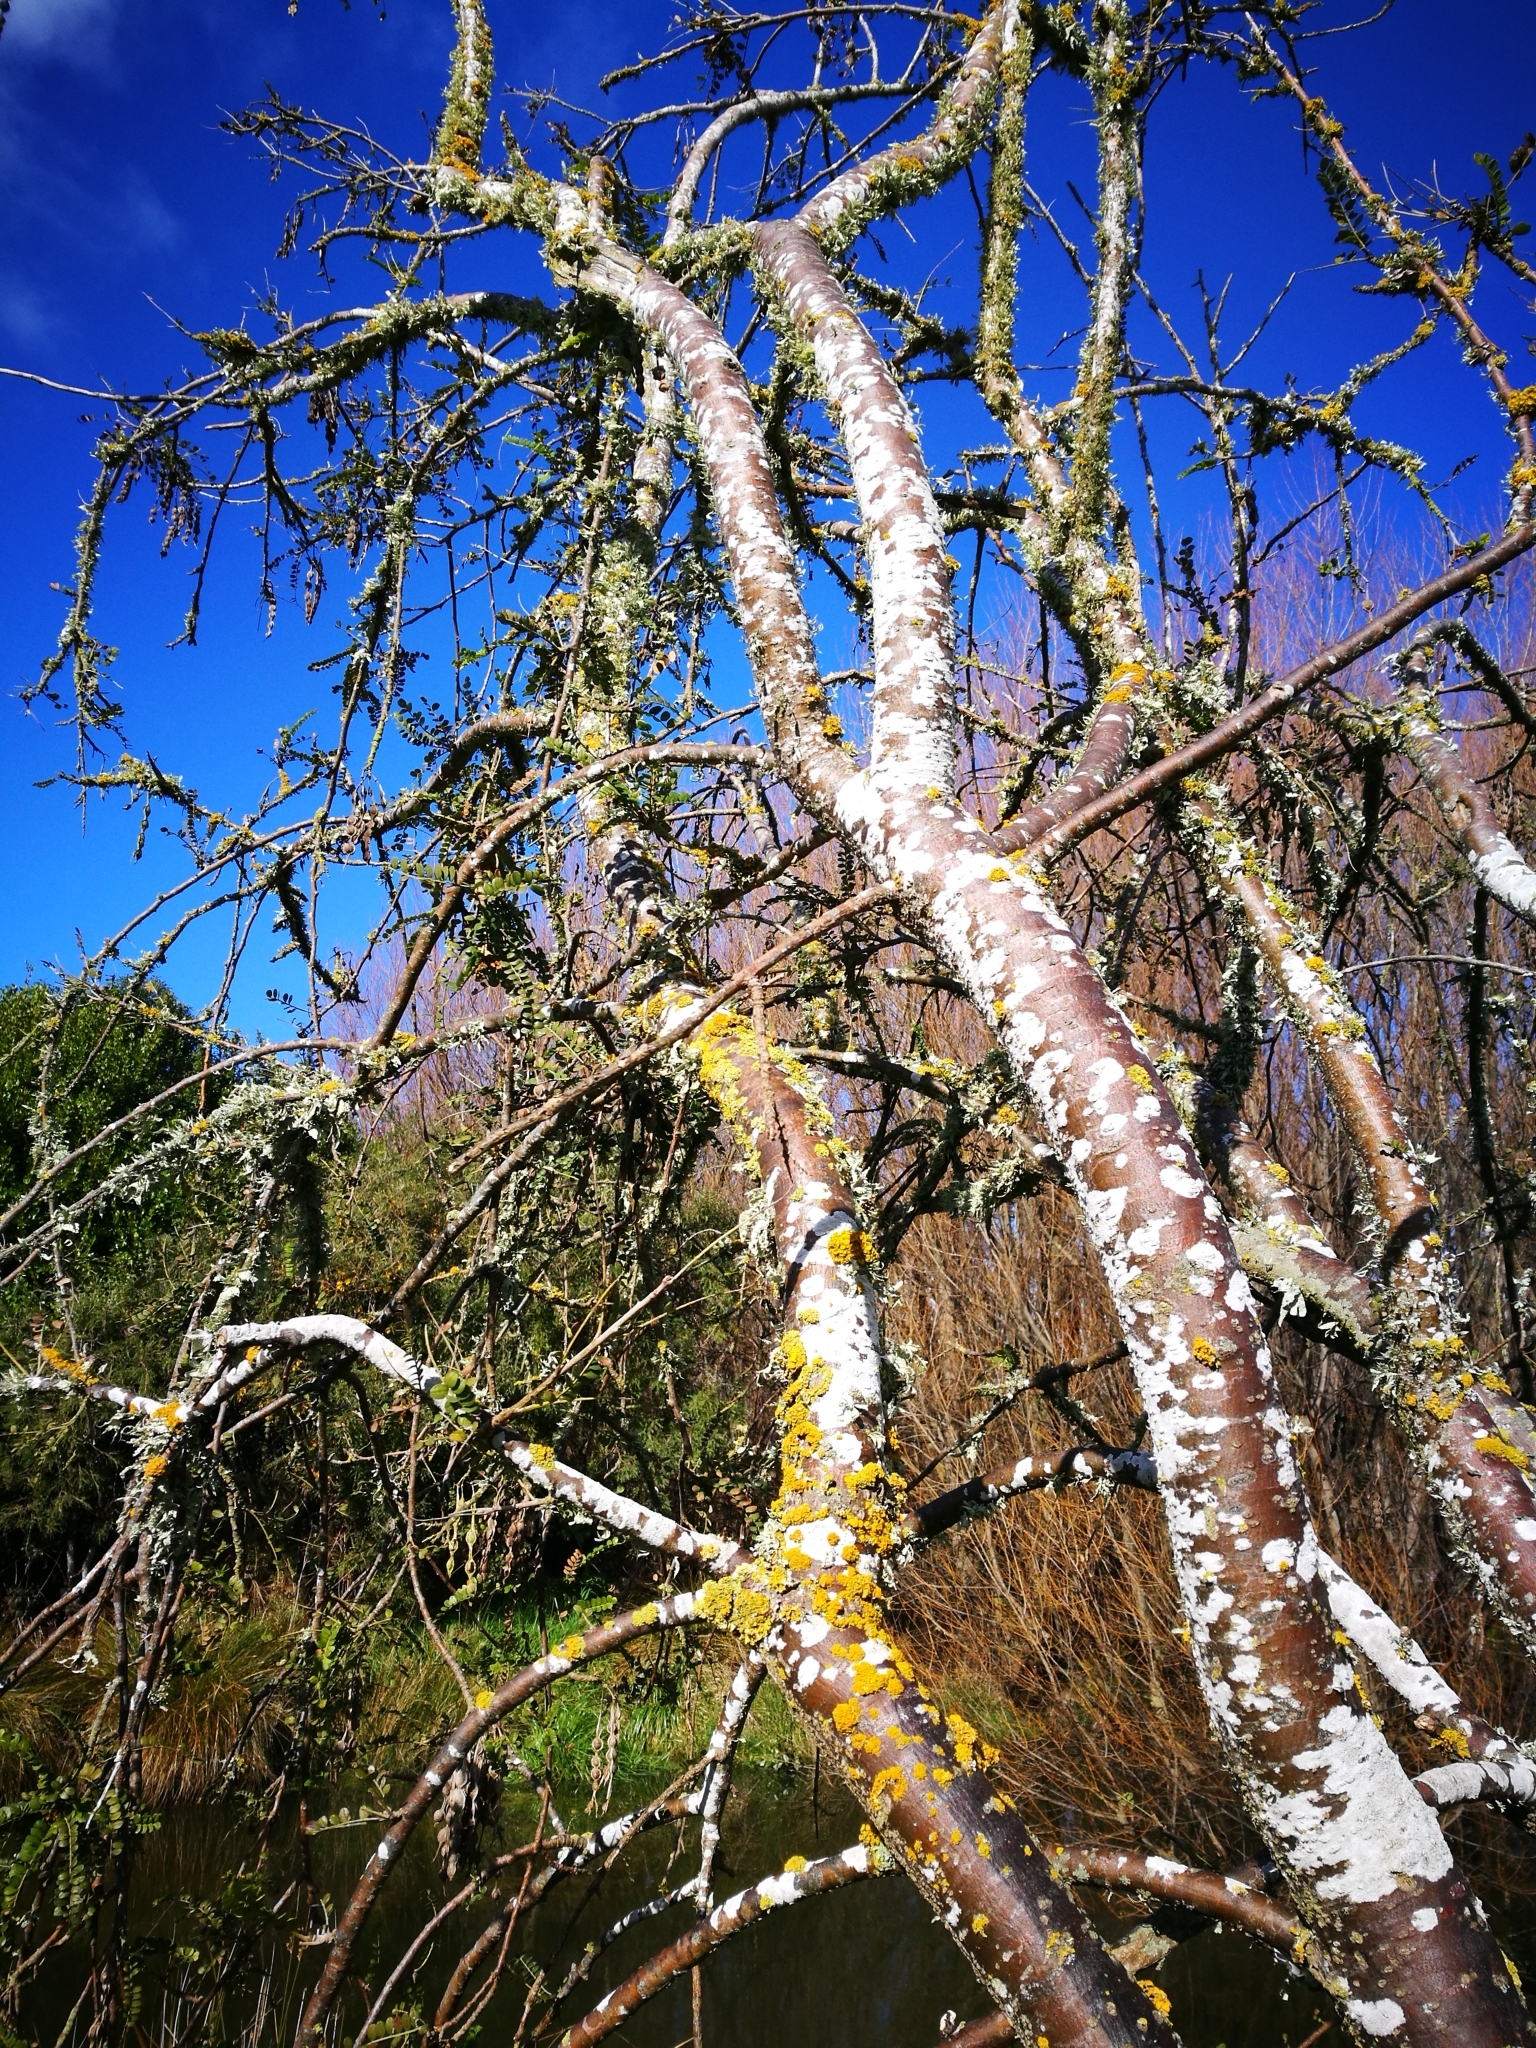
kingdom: Plantae
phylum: Tracheophyta
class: Magnoliopsida
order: Fabales
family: Fabaceae
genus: Sophora
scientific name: Sophora microphylla
